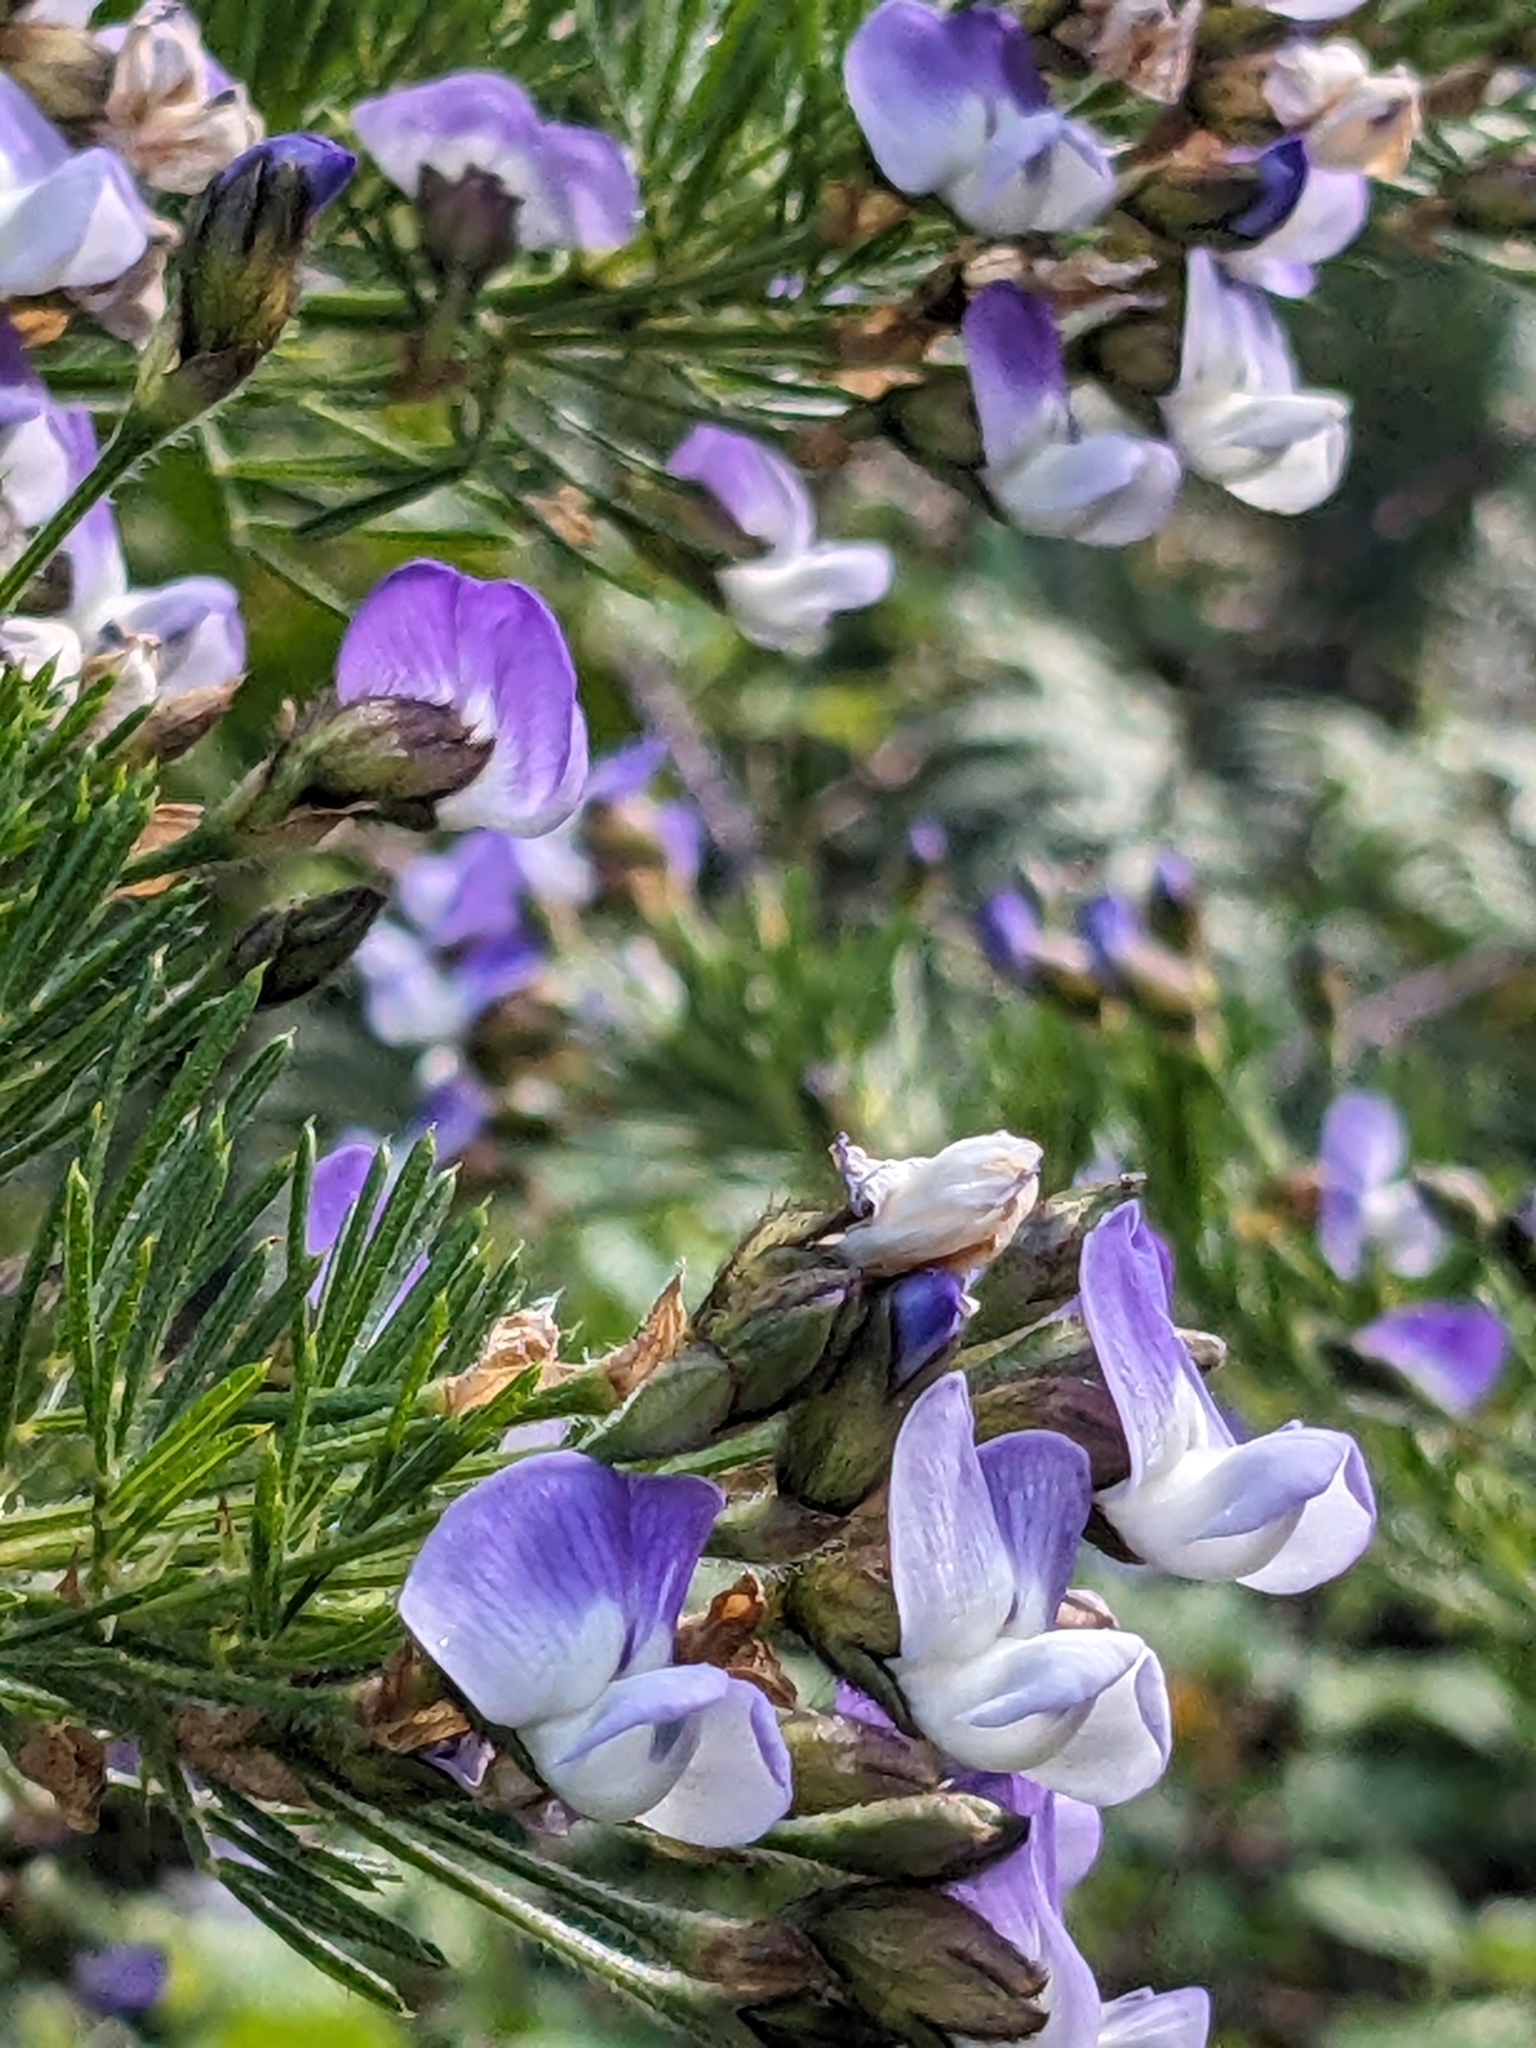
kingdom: Plantae
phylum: Tracheophyta
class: Magnoliopsida
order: Fabales
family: Fabaceae
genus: Psoralea
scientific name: Psoralea arborea
